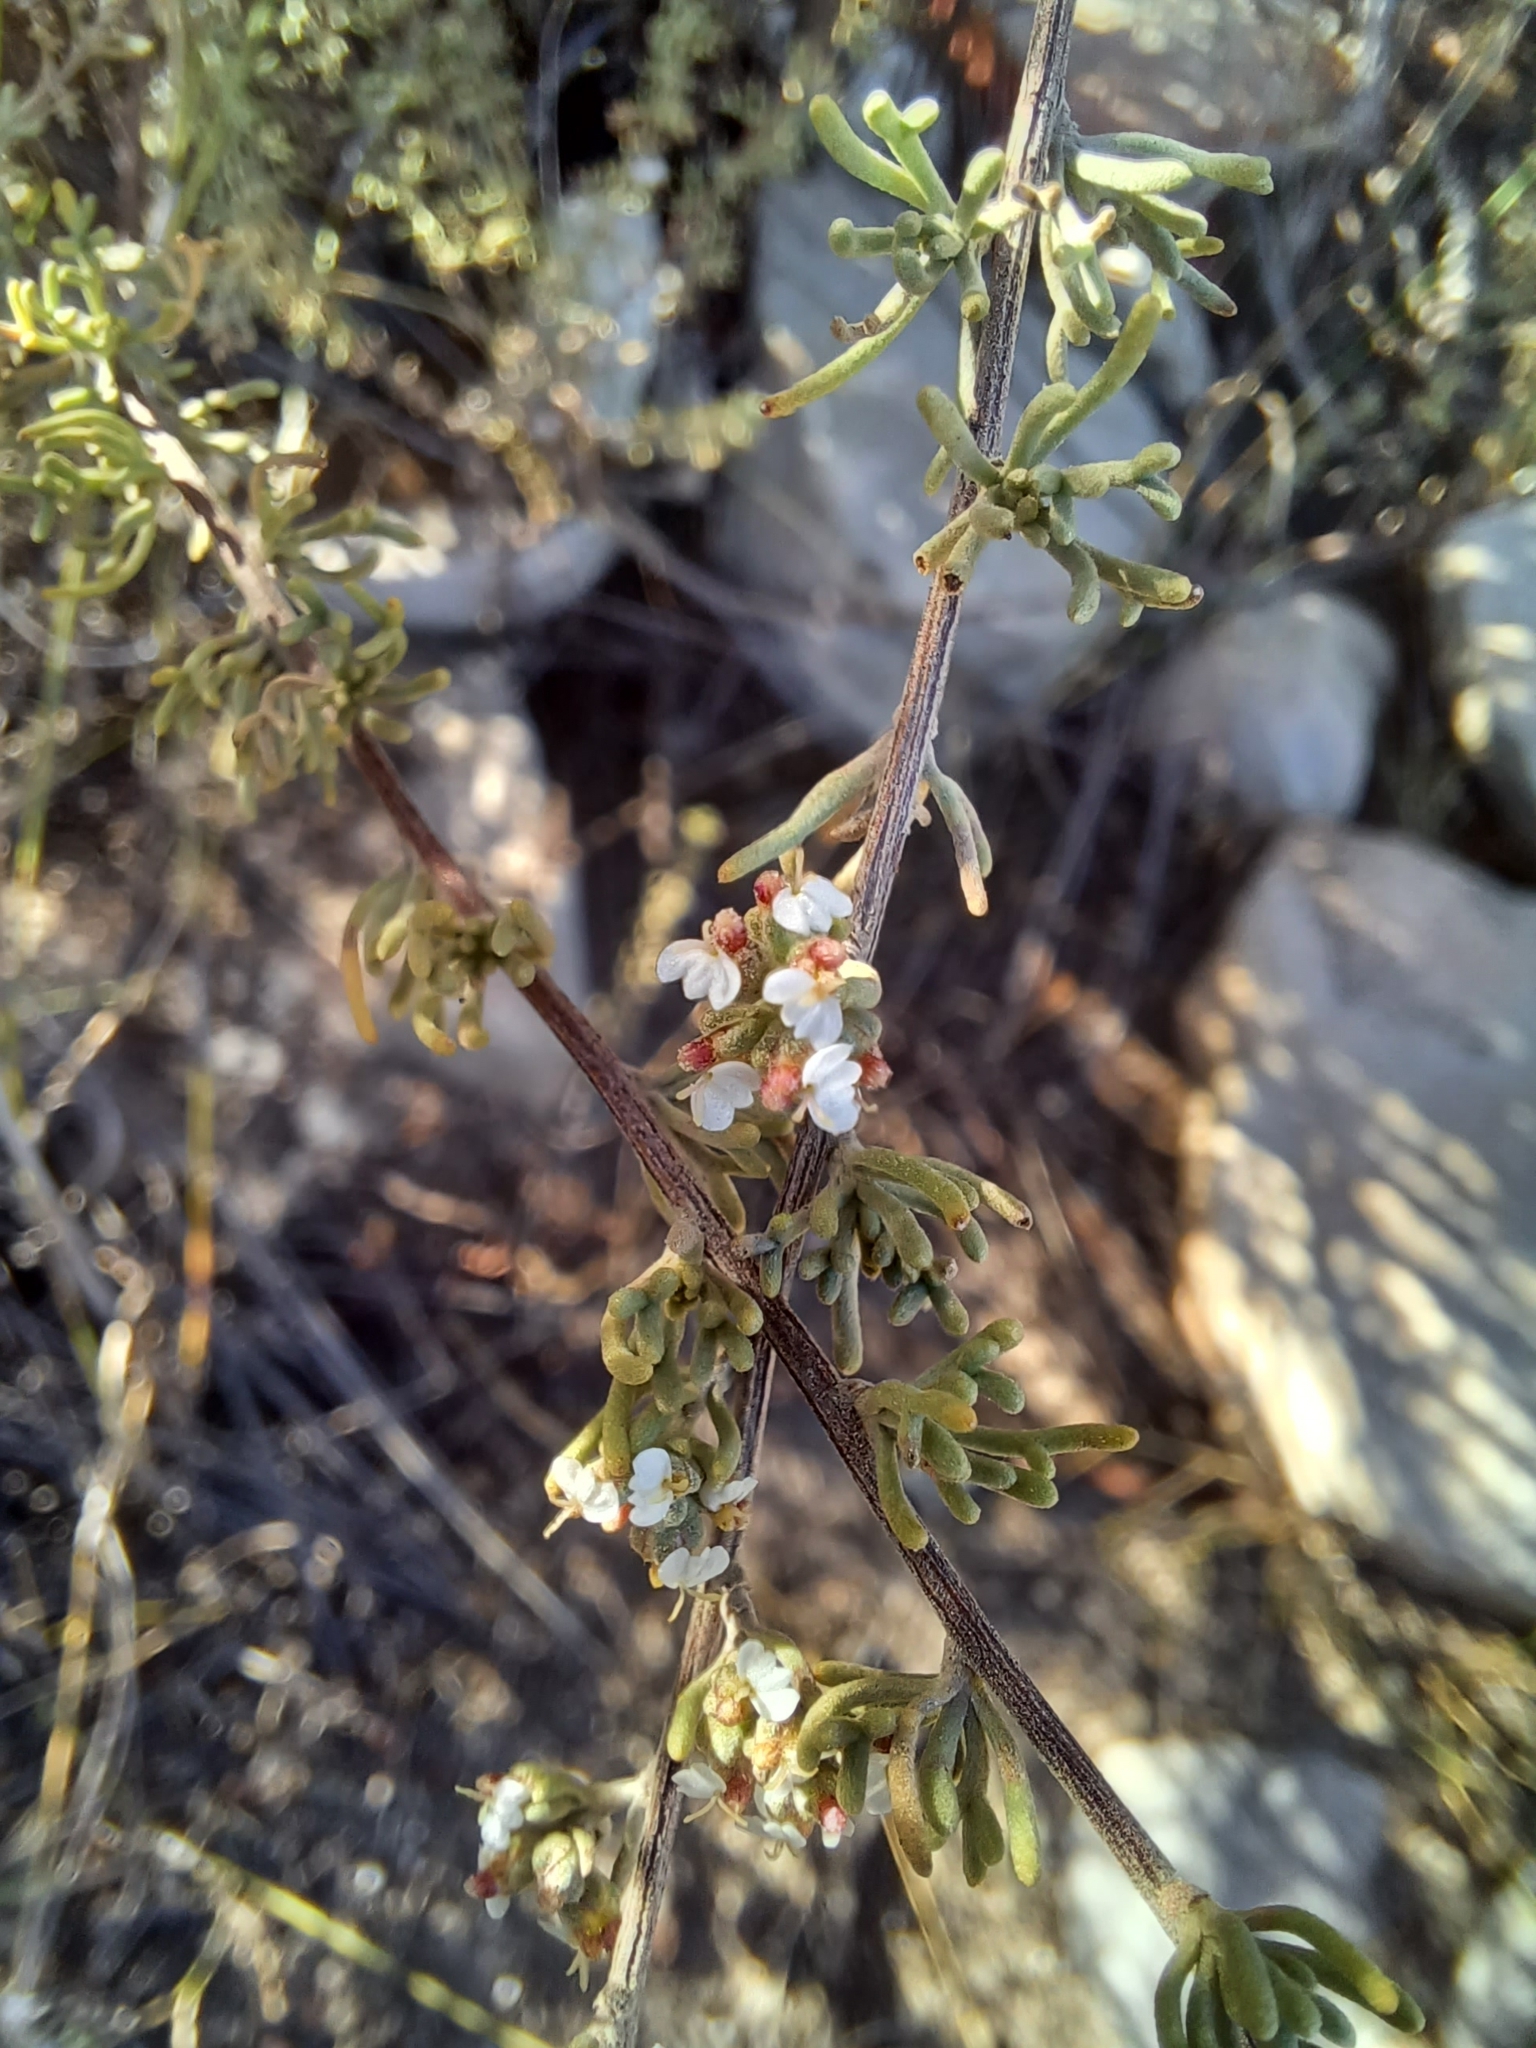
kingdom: Plantae
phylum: Tracheophyta
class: Magnoliopsida
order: Asterales
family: Asteraceae
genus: Eriocephalus
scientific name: Eriocephalus capitellatus
